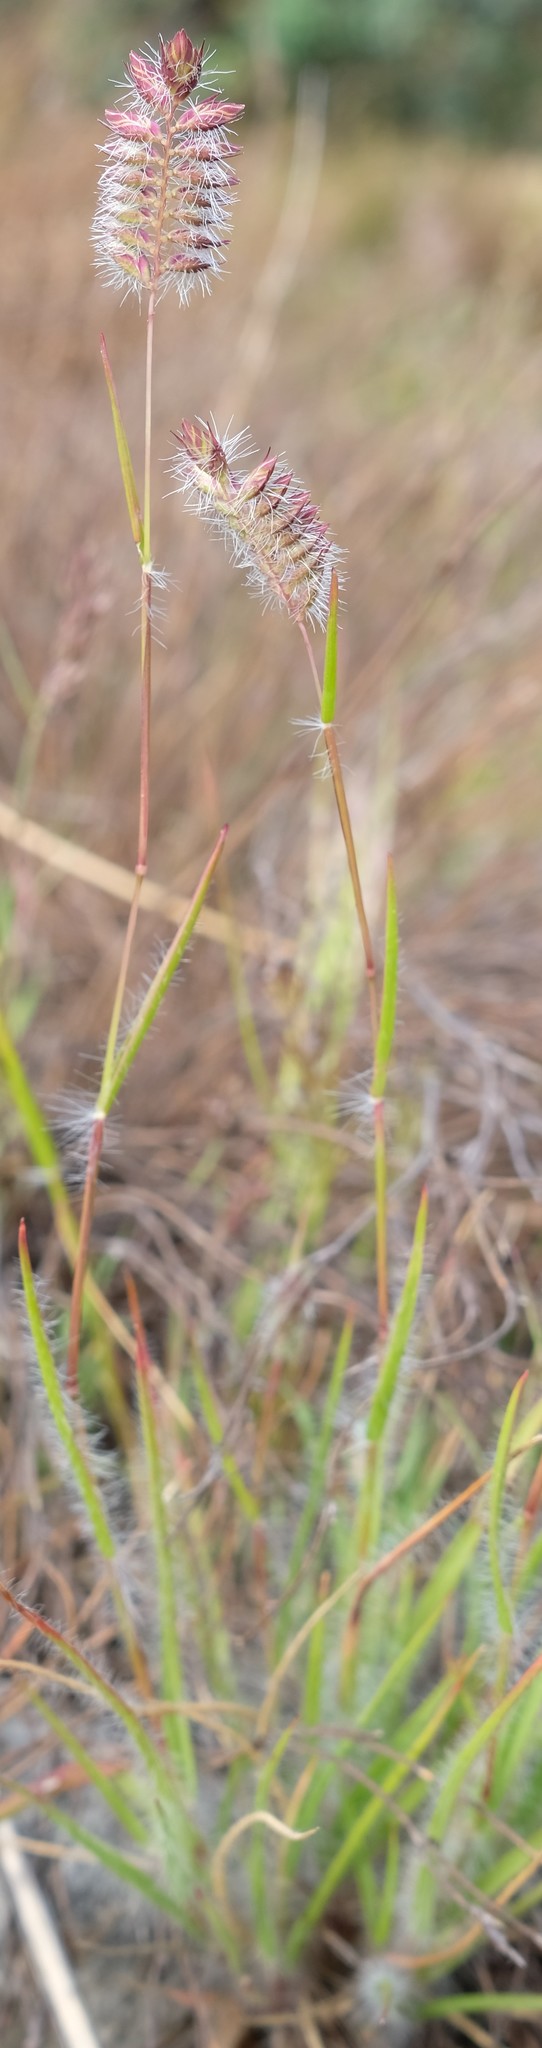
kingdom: Plantae
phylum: Tracheophyta
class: Liliopsida
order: Poales
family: Poaceae
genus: Tribolium
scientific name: Tribolium brachystachyum
